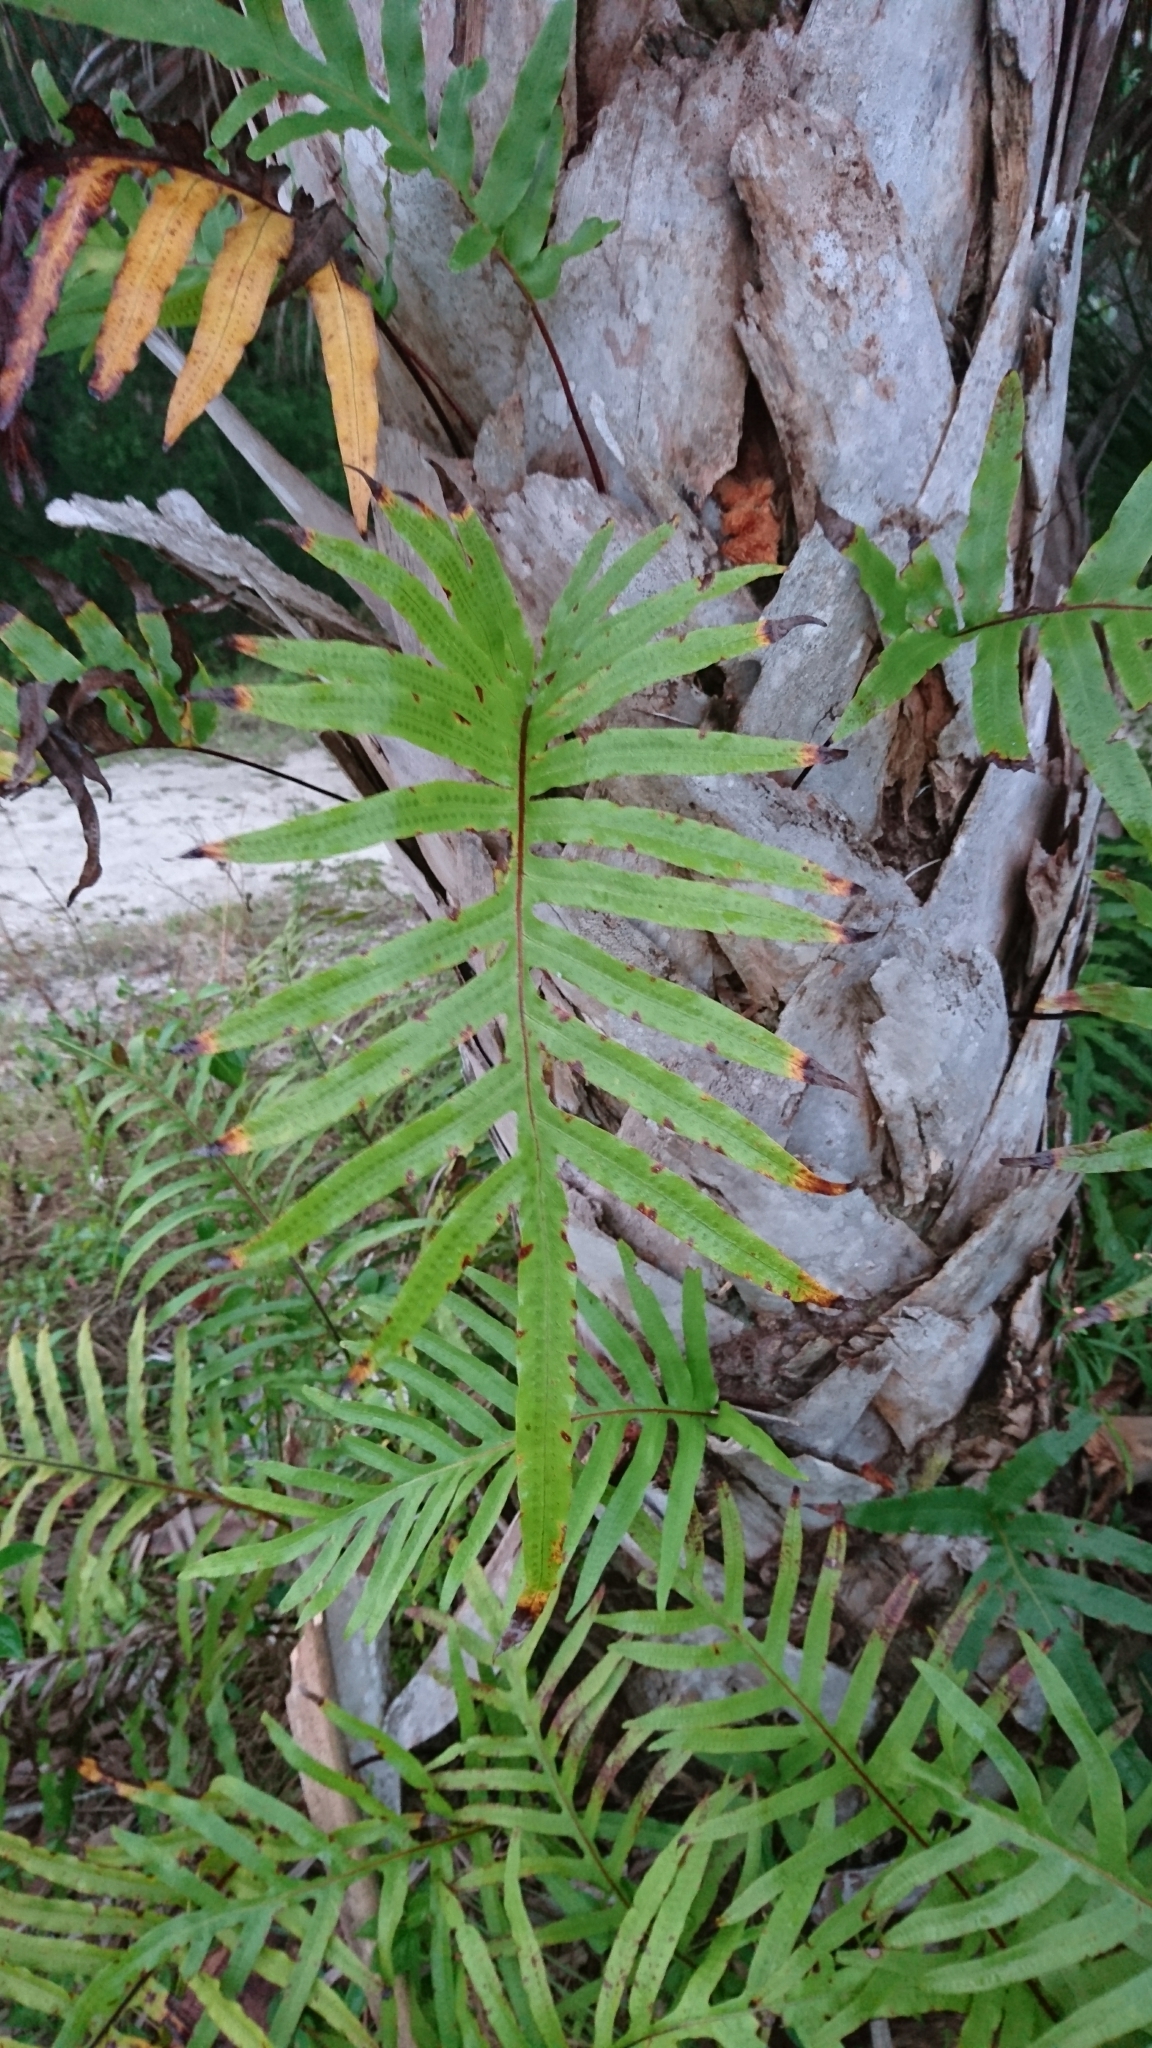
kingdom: Plantae
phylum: Tracheophyta
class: Polypodiopsida
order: Polypodiales
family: Polypodiaceae
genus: Phlebodium
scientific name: Phlebodium aureum
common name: Gold-foot fern
